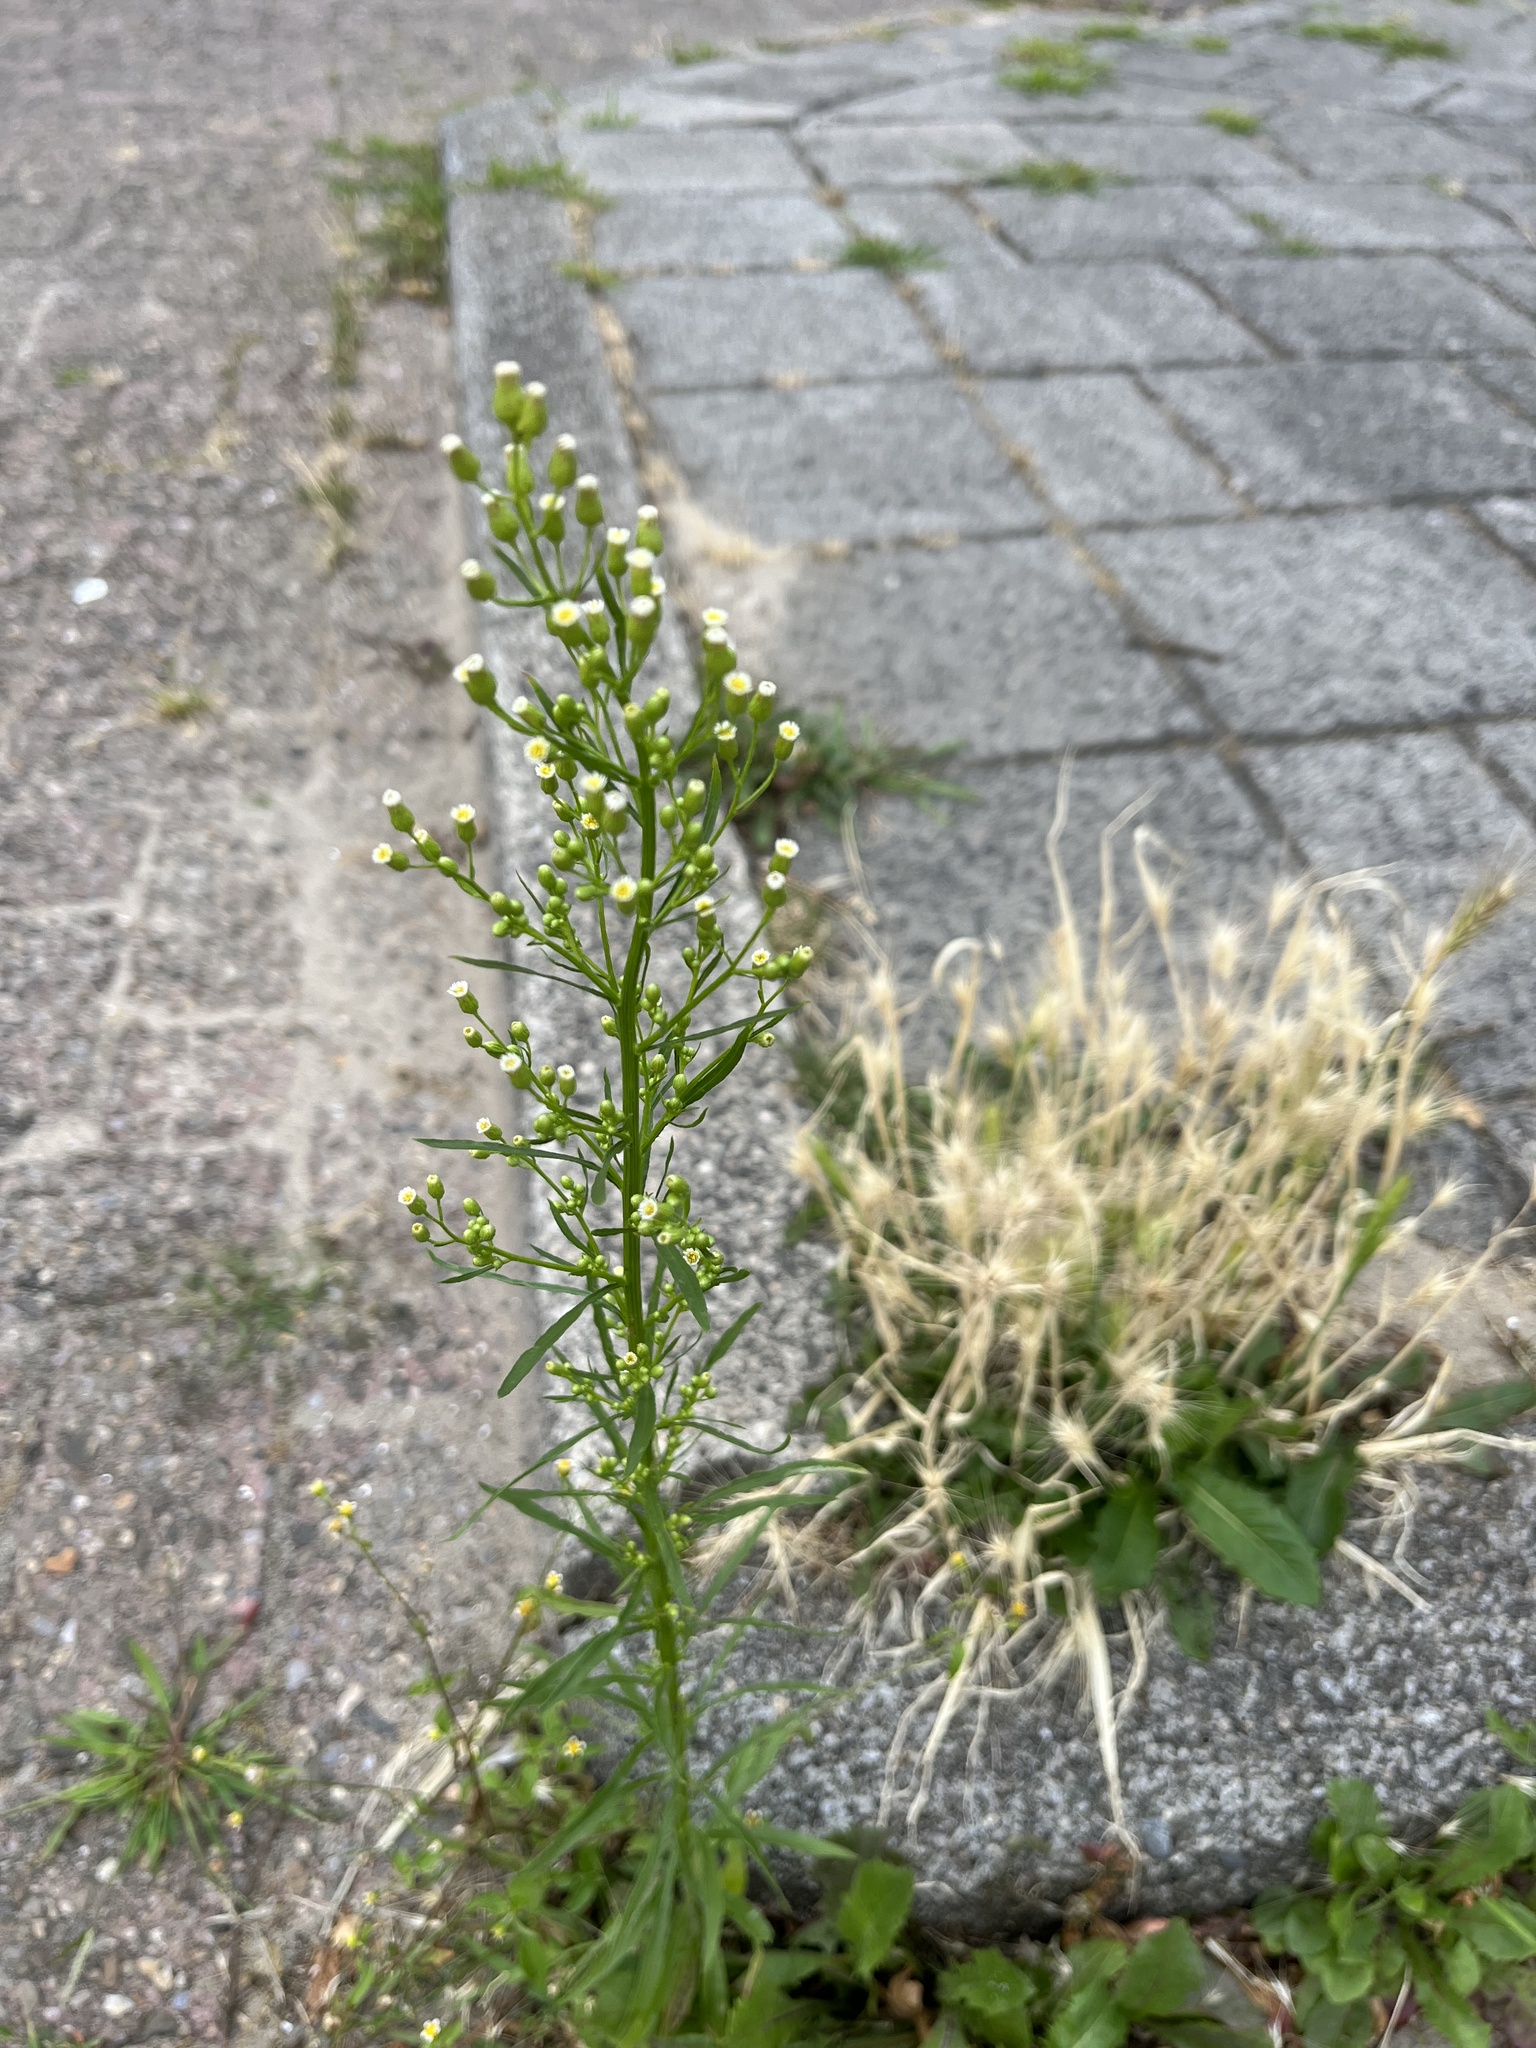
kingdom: Plantae
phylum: Tracheophyta
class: Magnoliopsida
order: Asterales
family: Asteraceae
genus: Erigeron
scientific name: Erigeron canadensis
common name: Canadian fleabane
